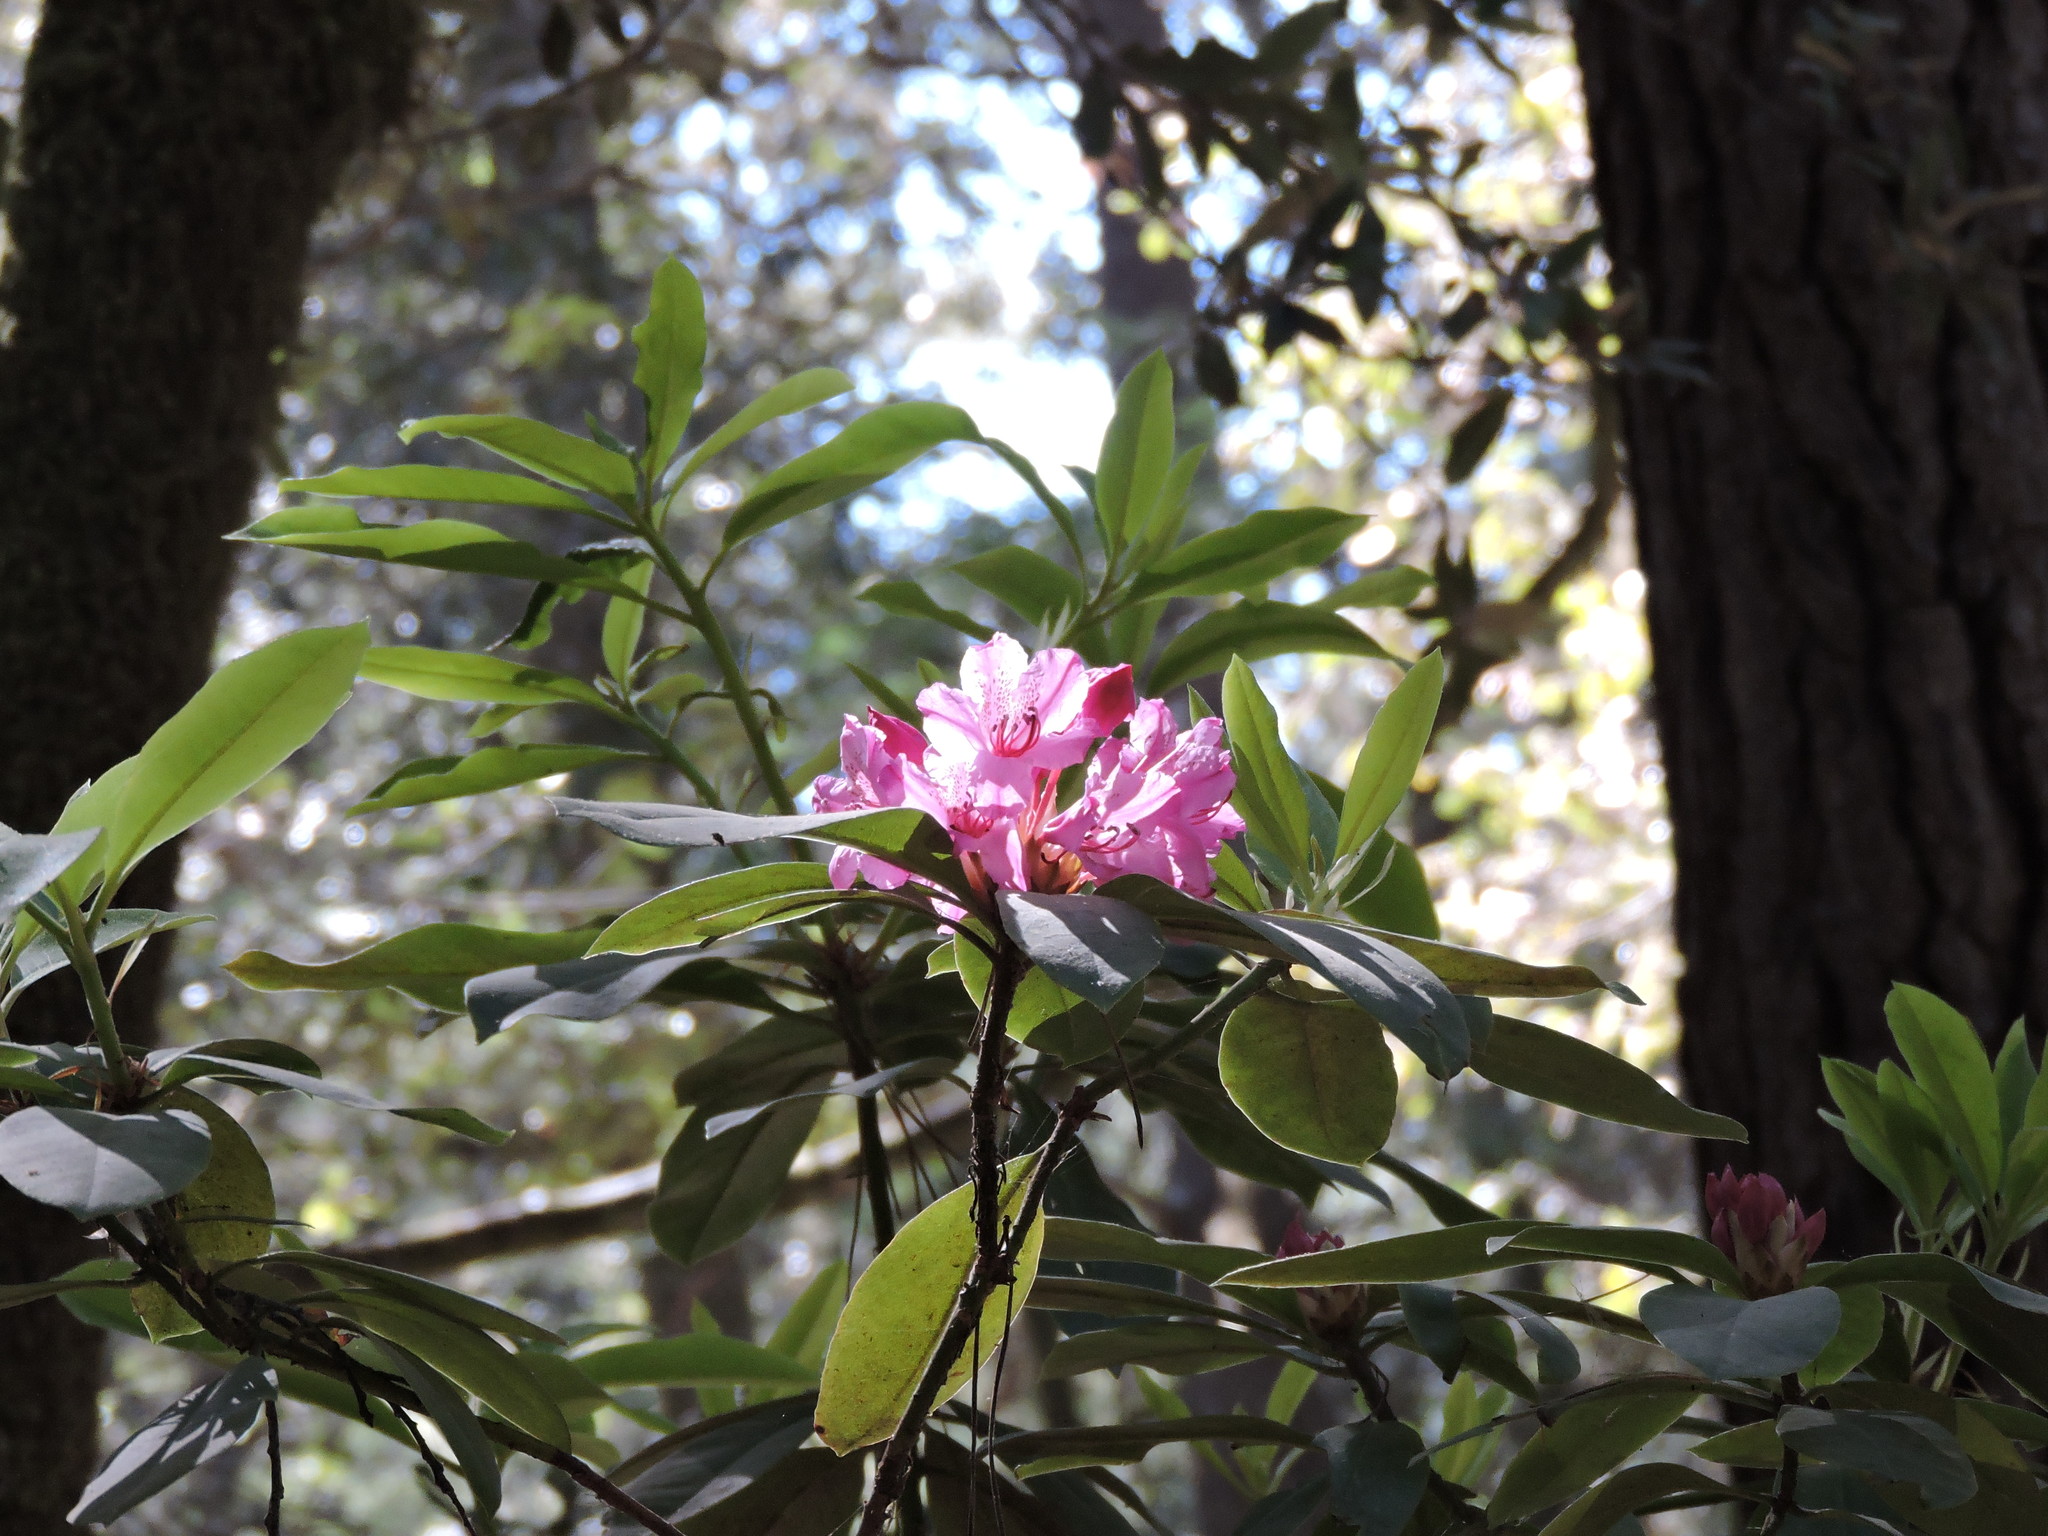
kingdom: Plantae
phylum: Tracheophyta
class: Magnoliopsida
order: Ericales
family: Ericaceae
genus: Rhododendron
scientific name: Rhododendron macrophyllum
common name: California rose bay
